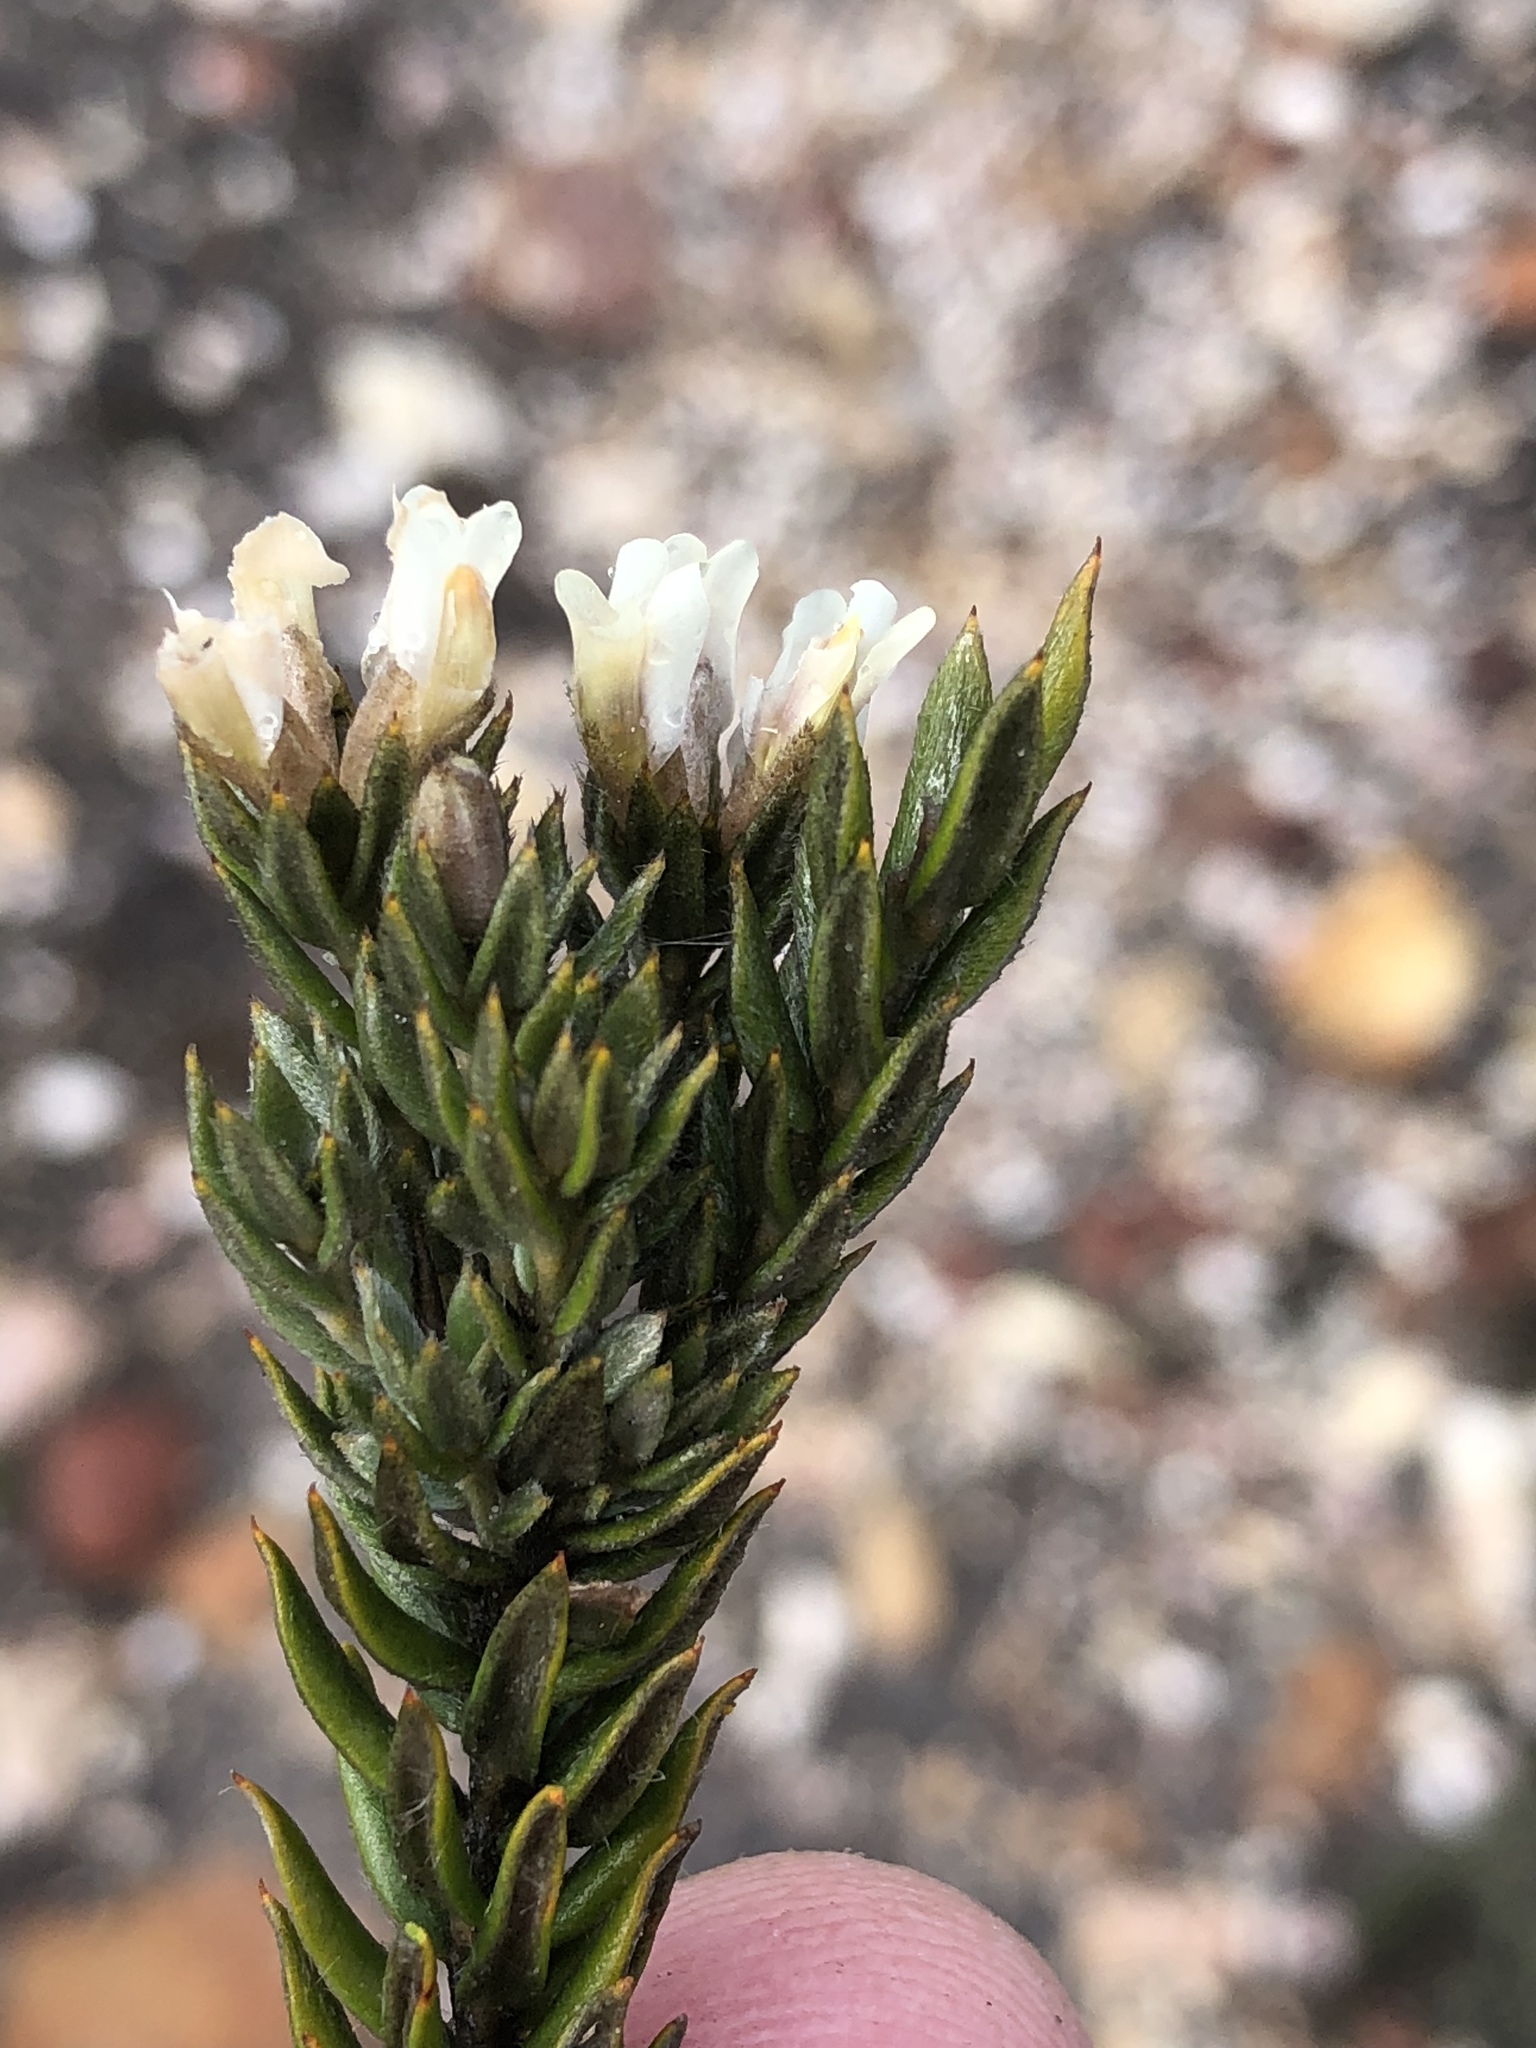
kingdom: Plantae
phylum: Tracheophyta
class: Magnoliopsida
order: Fabales
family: Fabaceae
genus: Amphithalea
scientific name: Amphithalea alba
